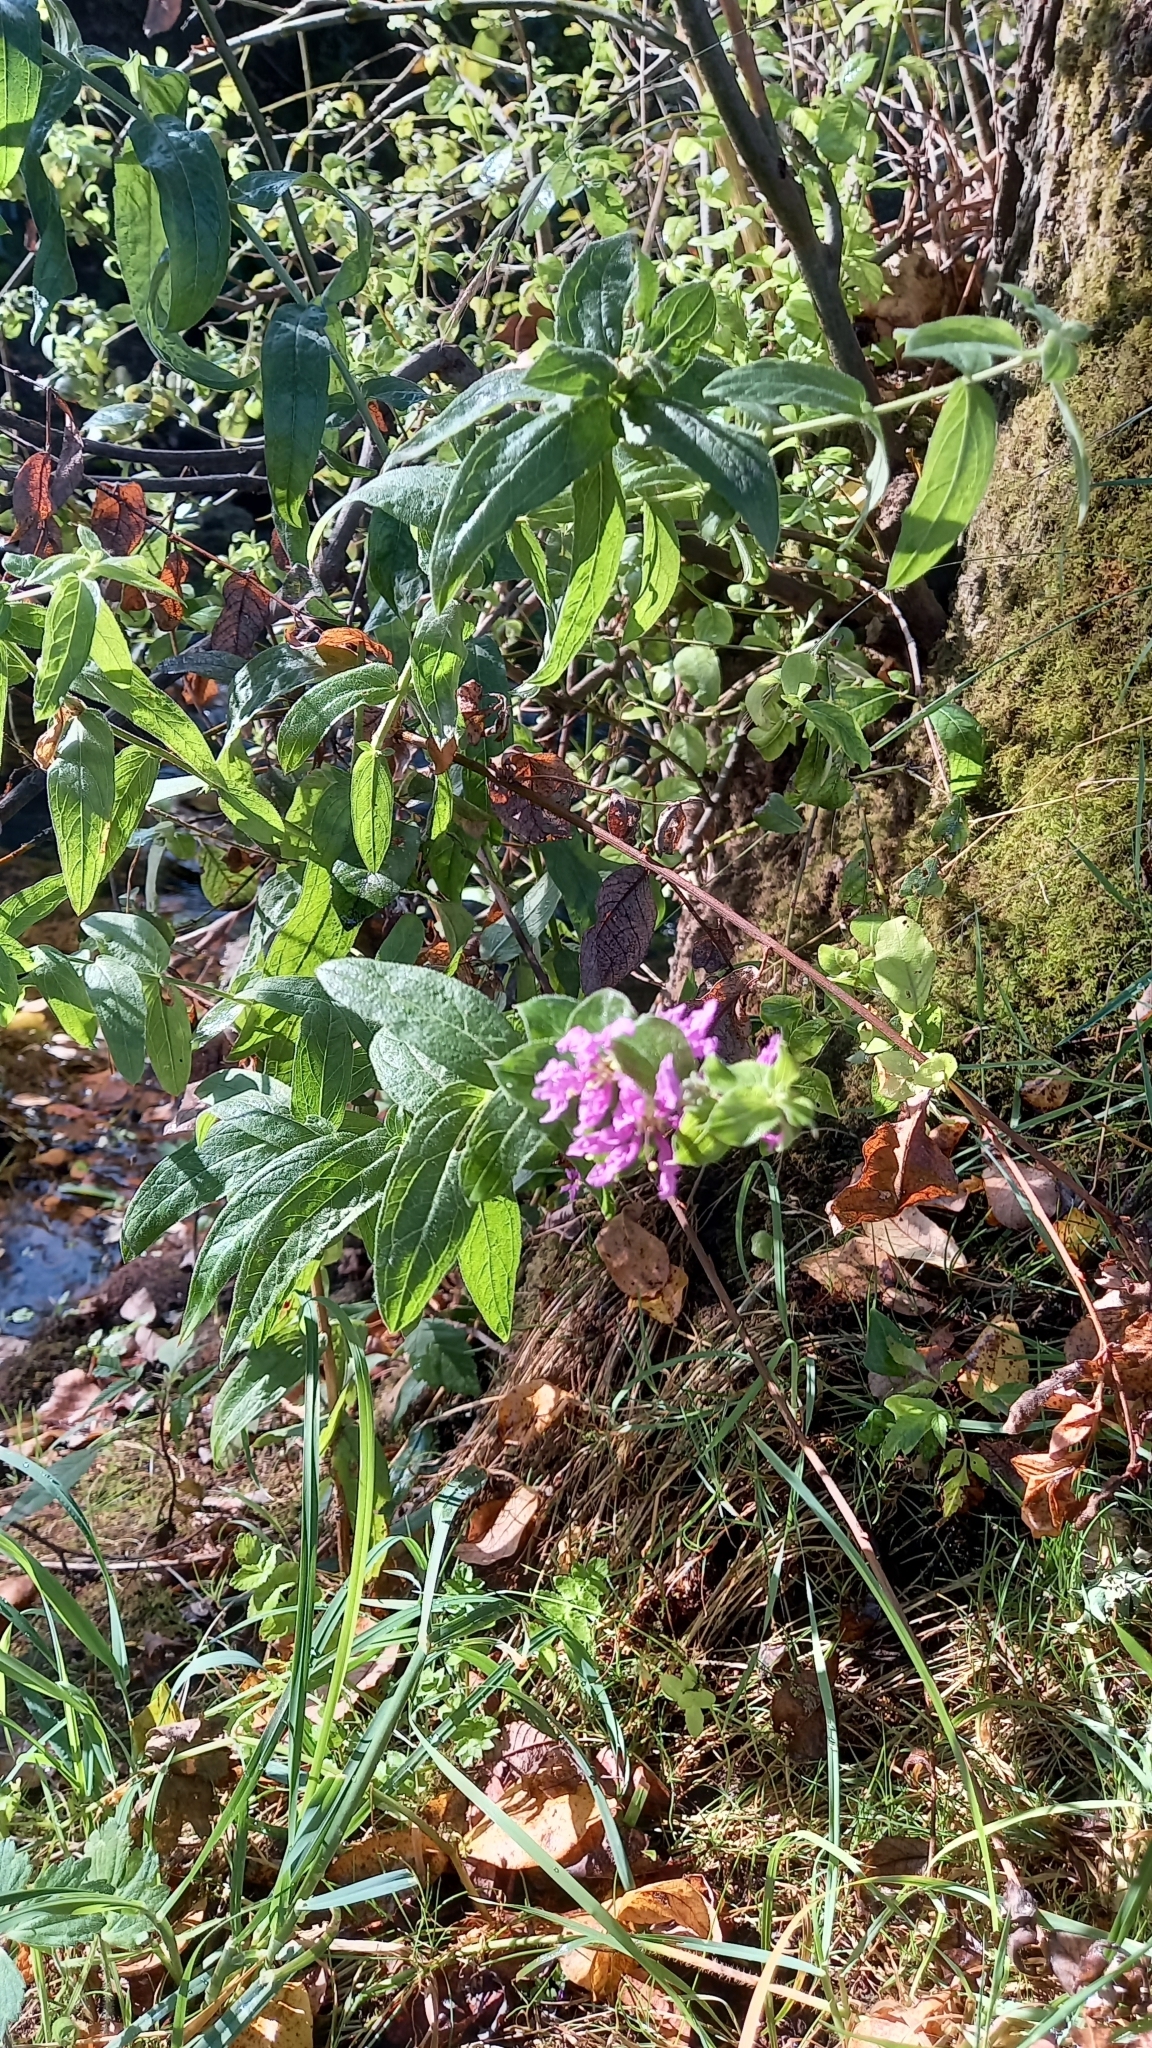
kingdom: Plantae
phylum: Tracheophyta
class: Magnoliopsida
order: Myrtales
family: Lythraceae
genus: Lythrum
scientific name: Lythrum salicaria
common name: Purple loosestrife
